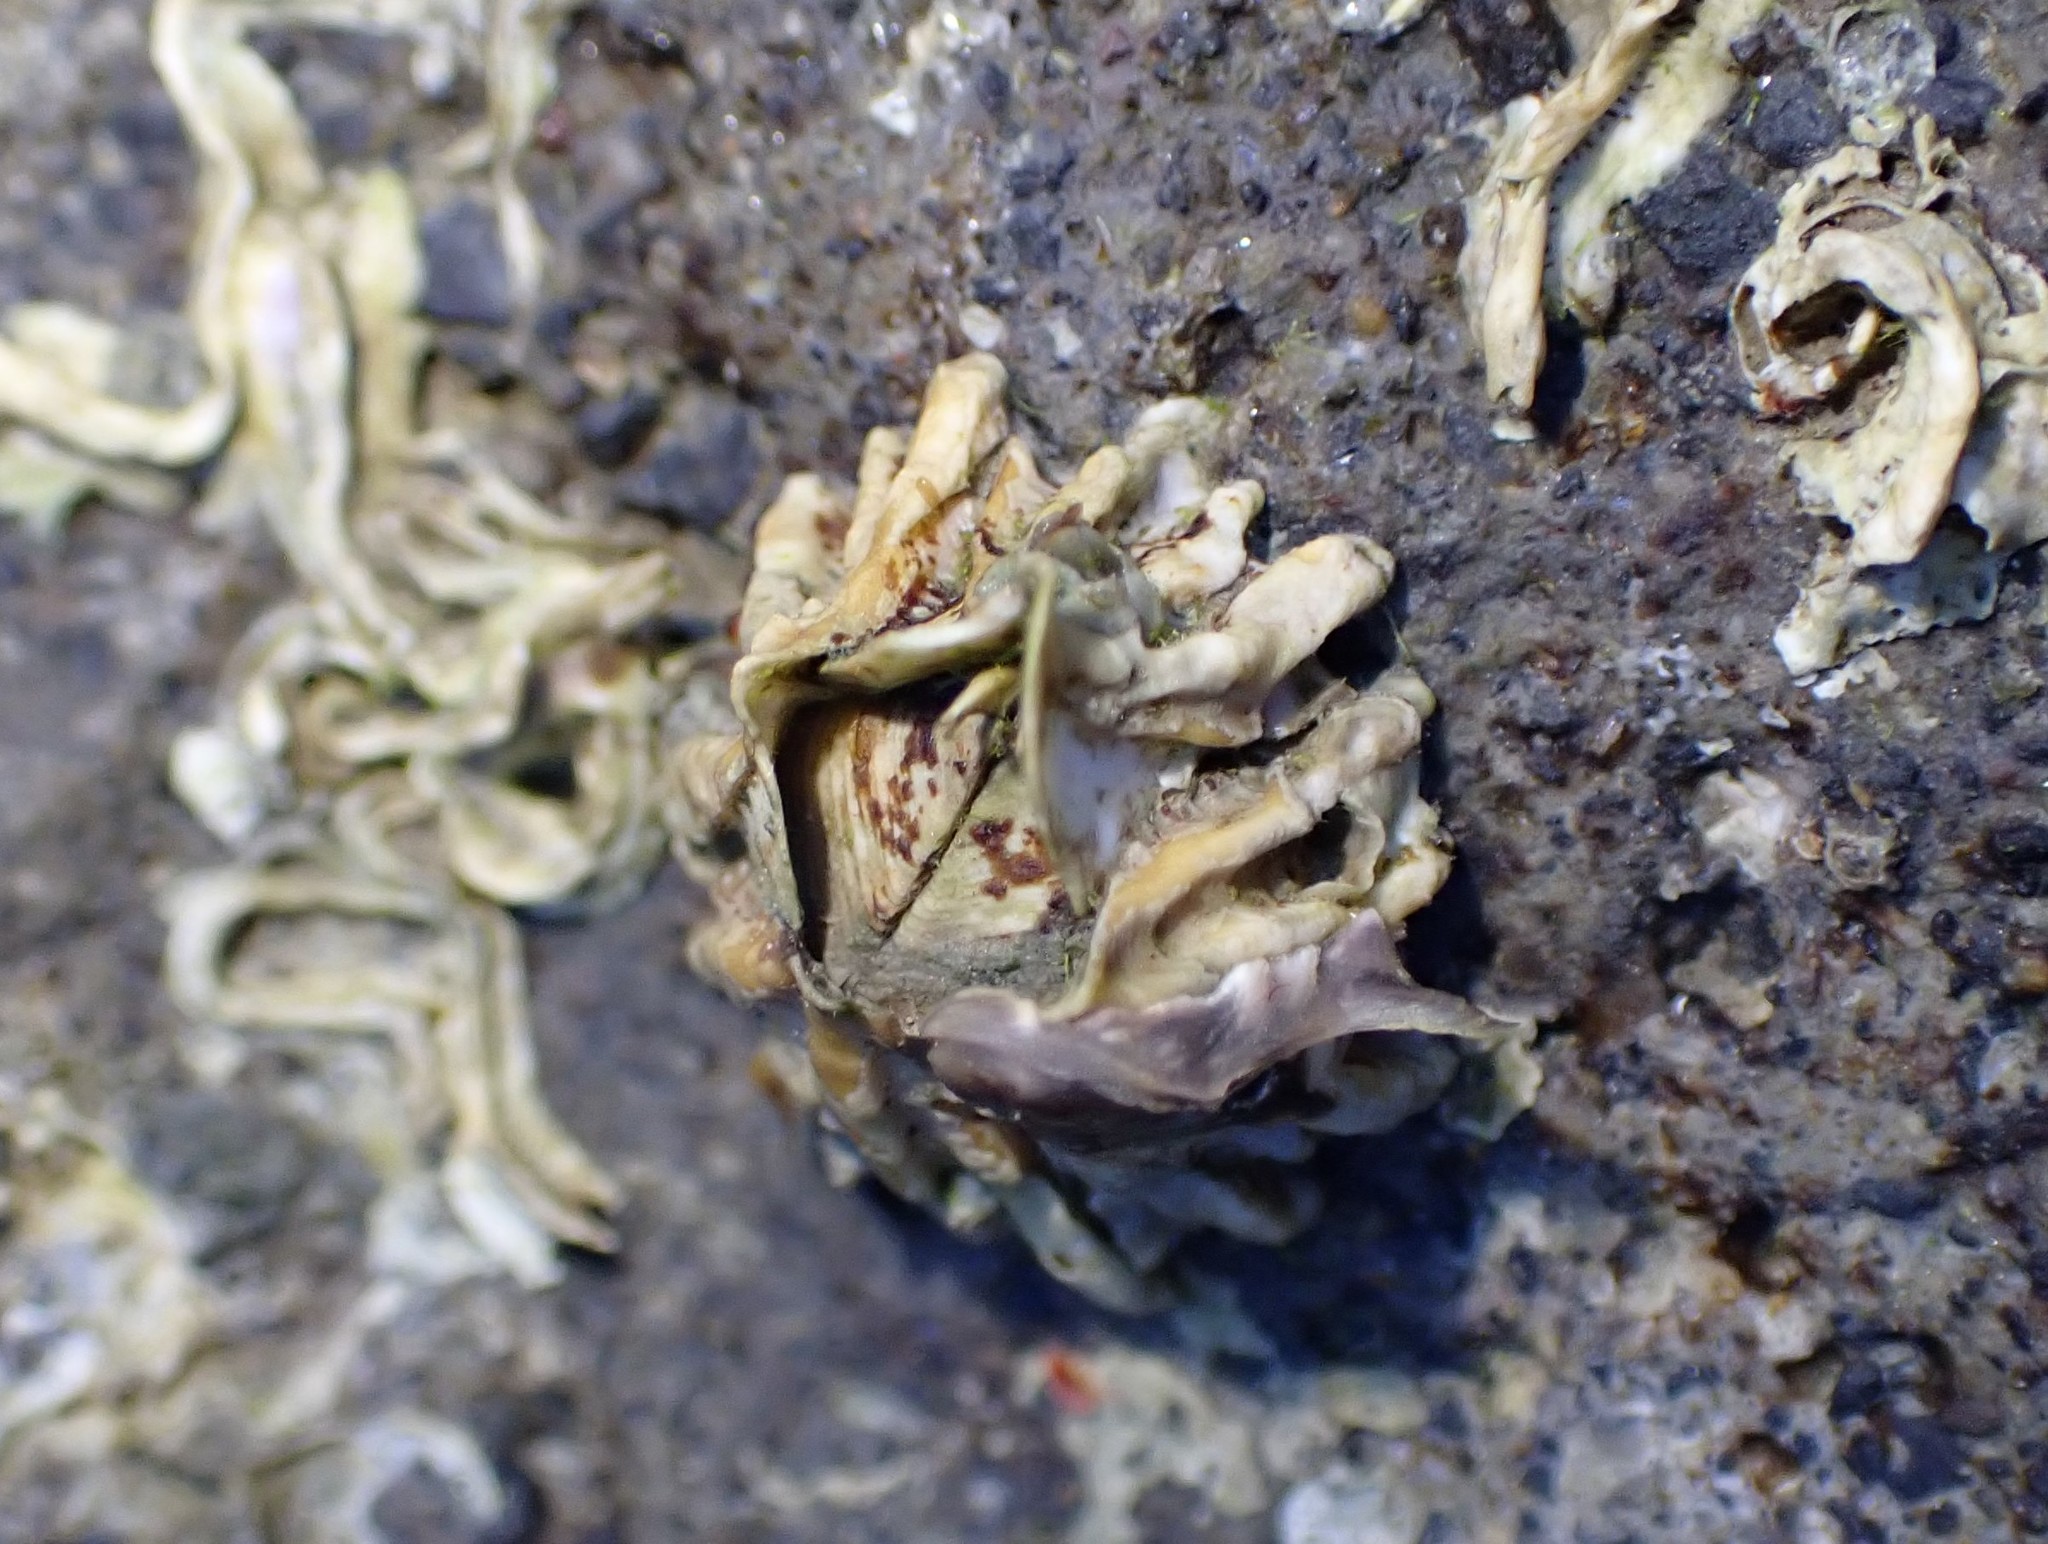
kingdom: Animalia
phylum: Arthropoda
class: Maxillopoda
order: Sessilia
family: Tetraclitidae
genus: Epopella
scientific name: Epopella plicata
